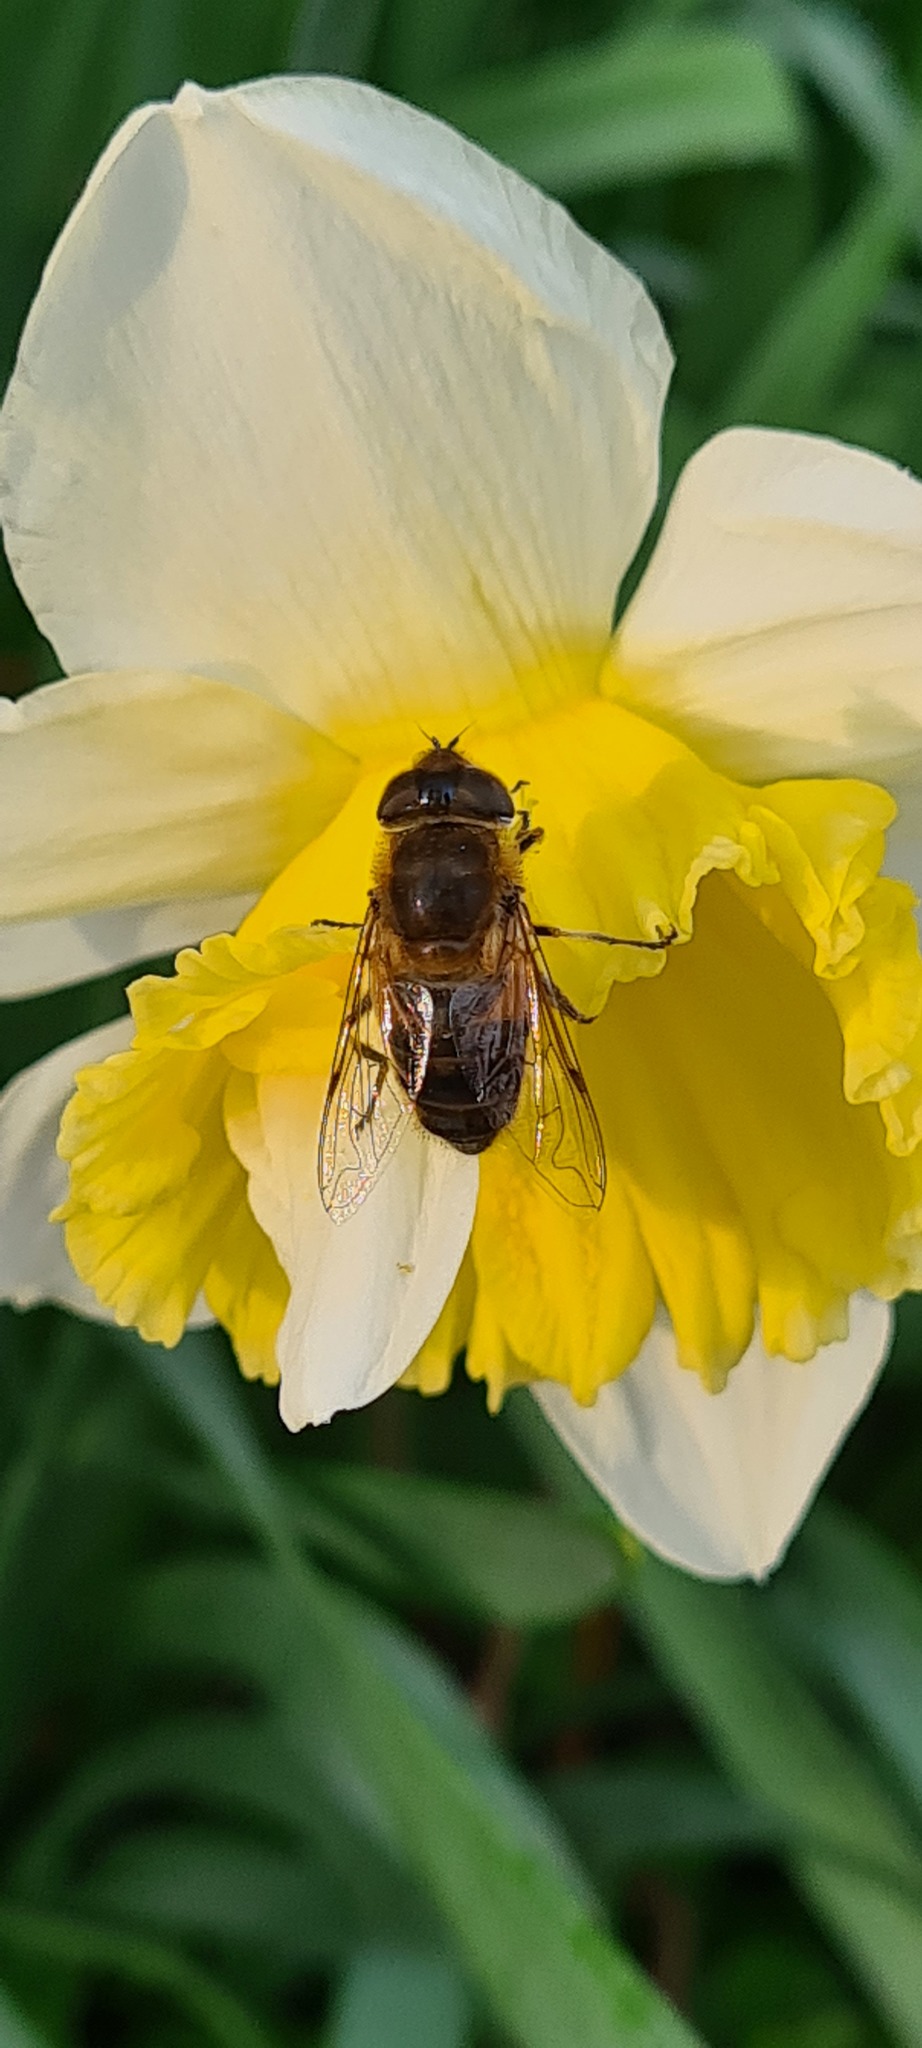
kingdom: Animalia
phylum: Arthropoda
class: Insecta
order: Diptera
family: Syrphidae
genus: Eristalis
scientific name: Eristalis pertinax
